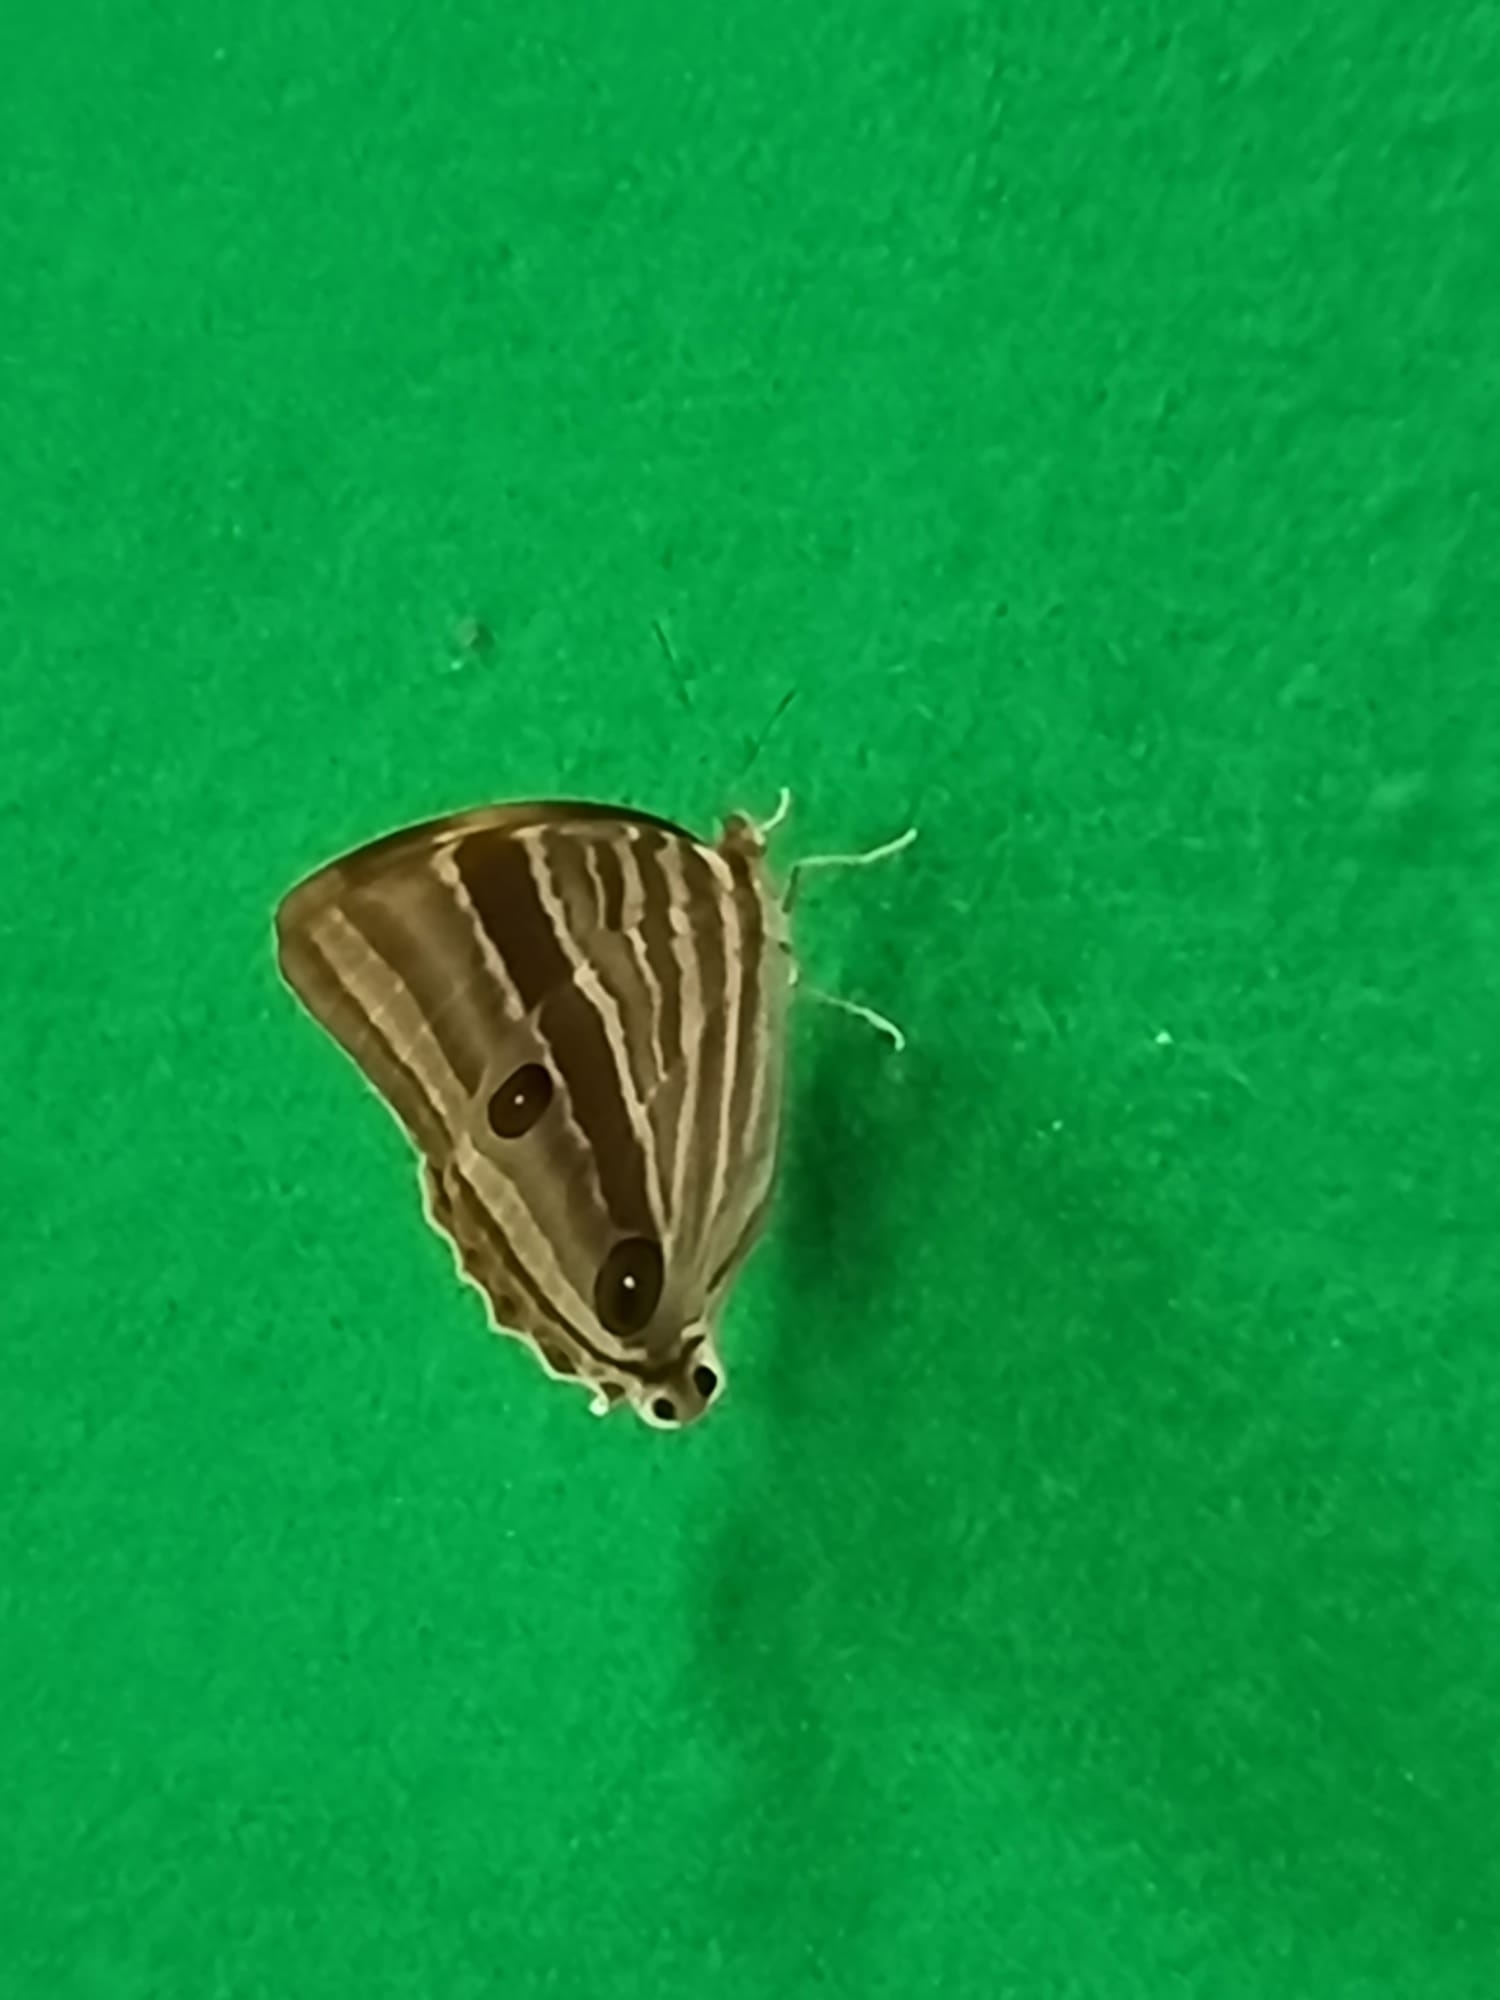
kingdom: Animalia
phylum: Arthropoda
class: Insecta
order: Lepidoptera
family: Nymphalidae
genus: Amathusia
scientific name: Amathusia phidippus
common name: Palm king
